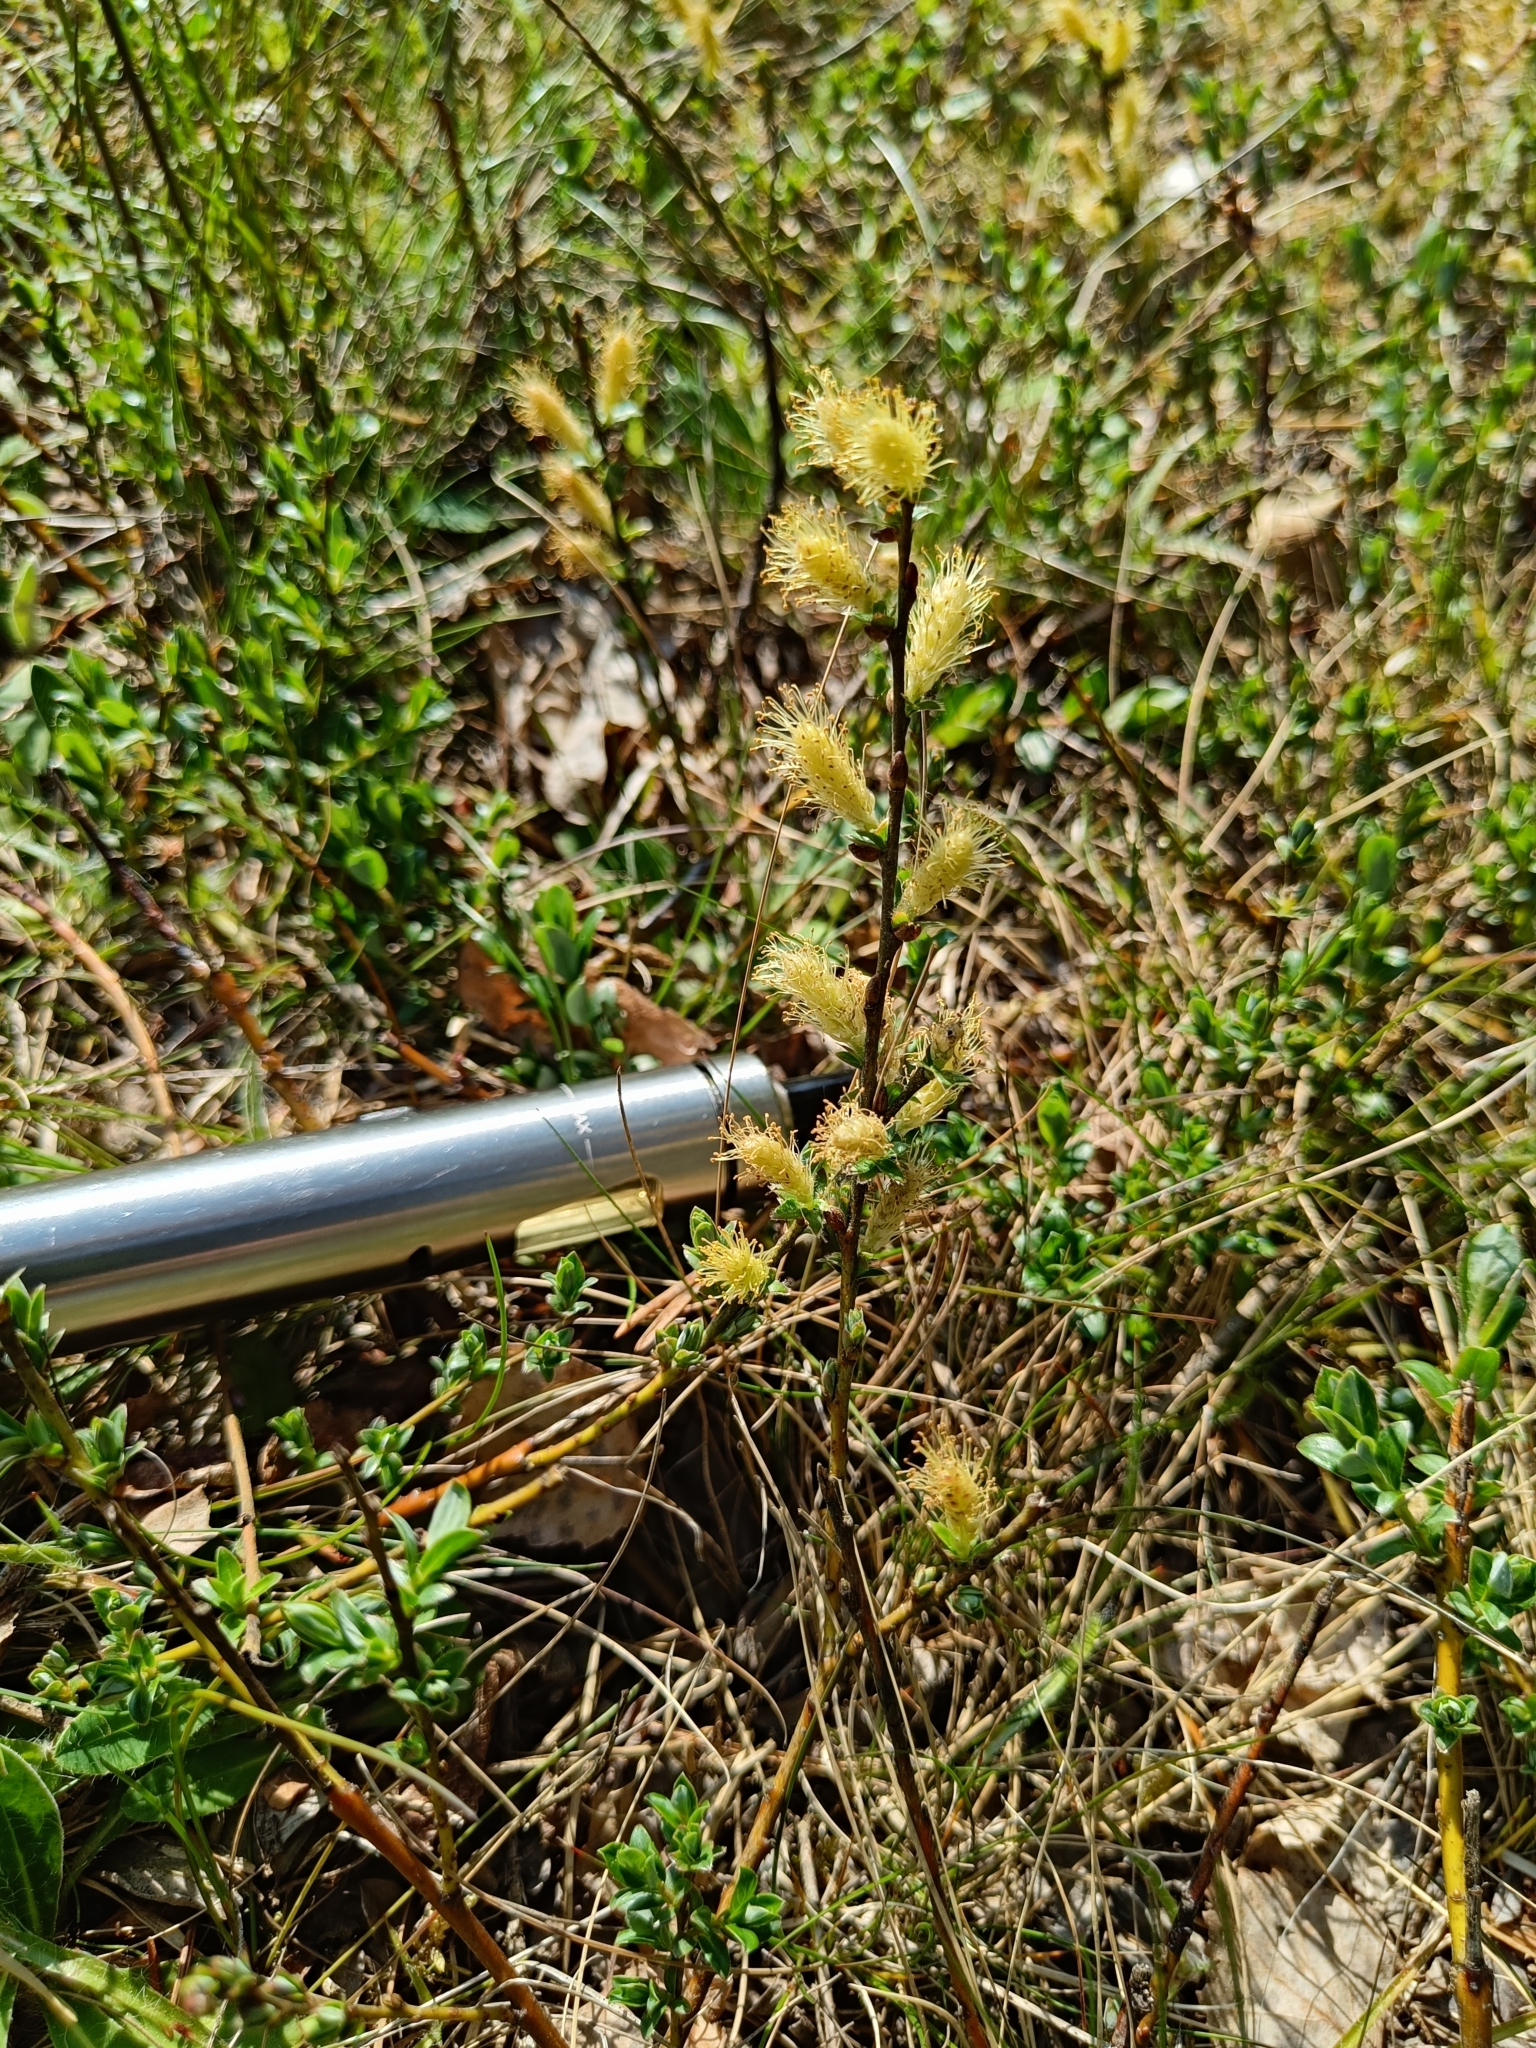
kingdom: Plantae
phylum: Tracheophyta
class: Magnoliopsida
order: Malpighiales
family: Salicaceae
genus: Salix
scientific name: Salix repens
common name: Creeping willow
